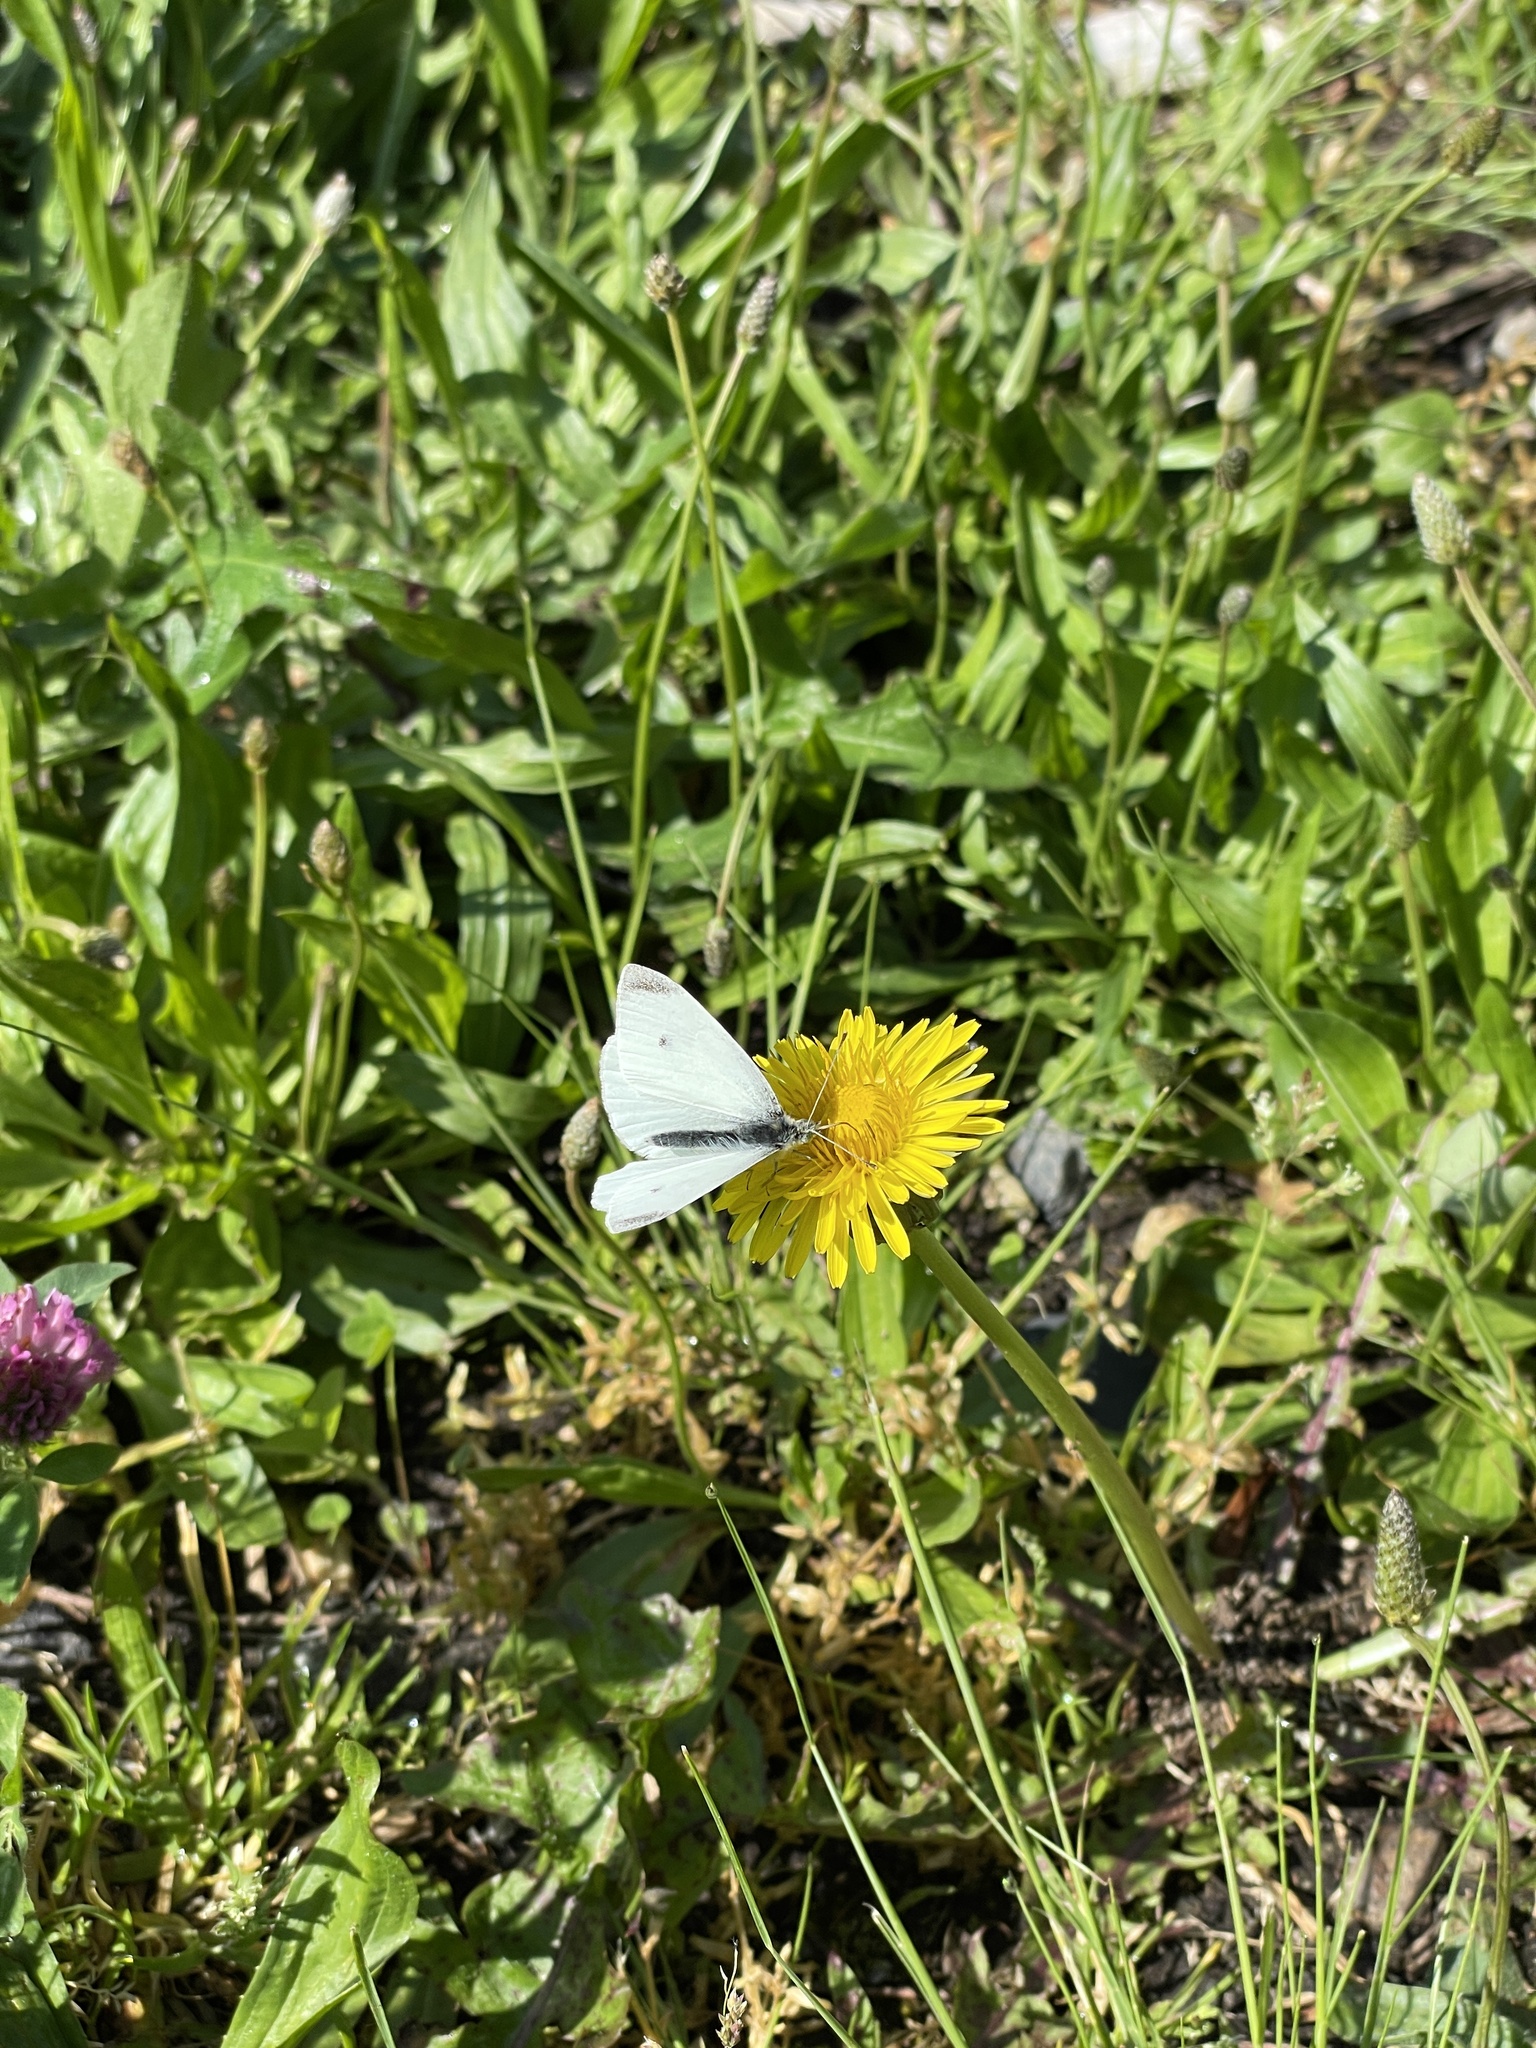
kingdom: Animalia
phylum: Arthropoda
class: Insecta
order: Lepidoptera
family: Pieridae
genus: Pieris
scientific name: Pieris rapae
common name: Small white
